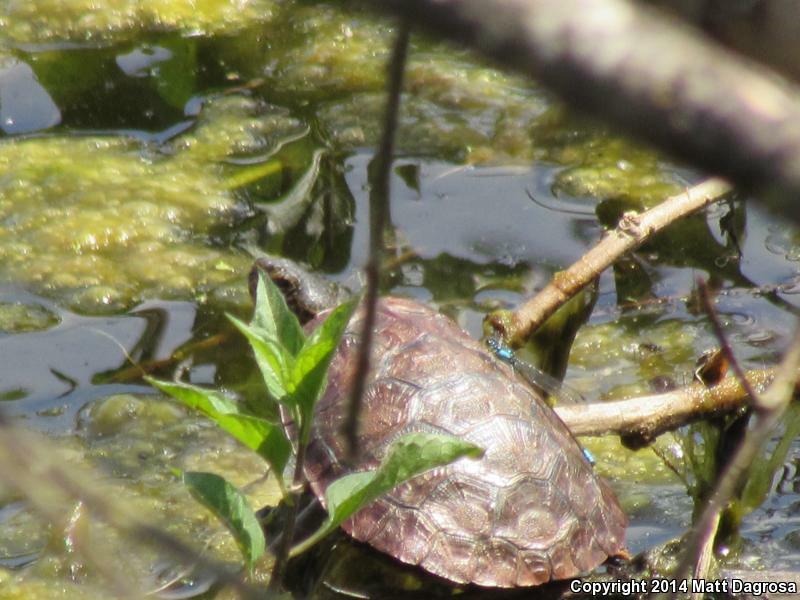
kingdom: Animalia
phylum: Chordata
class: Testudines
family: Emydidae
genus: Actinemys
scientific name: Actinemys marmorata
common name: Western pond turtle
